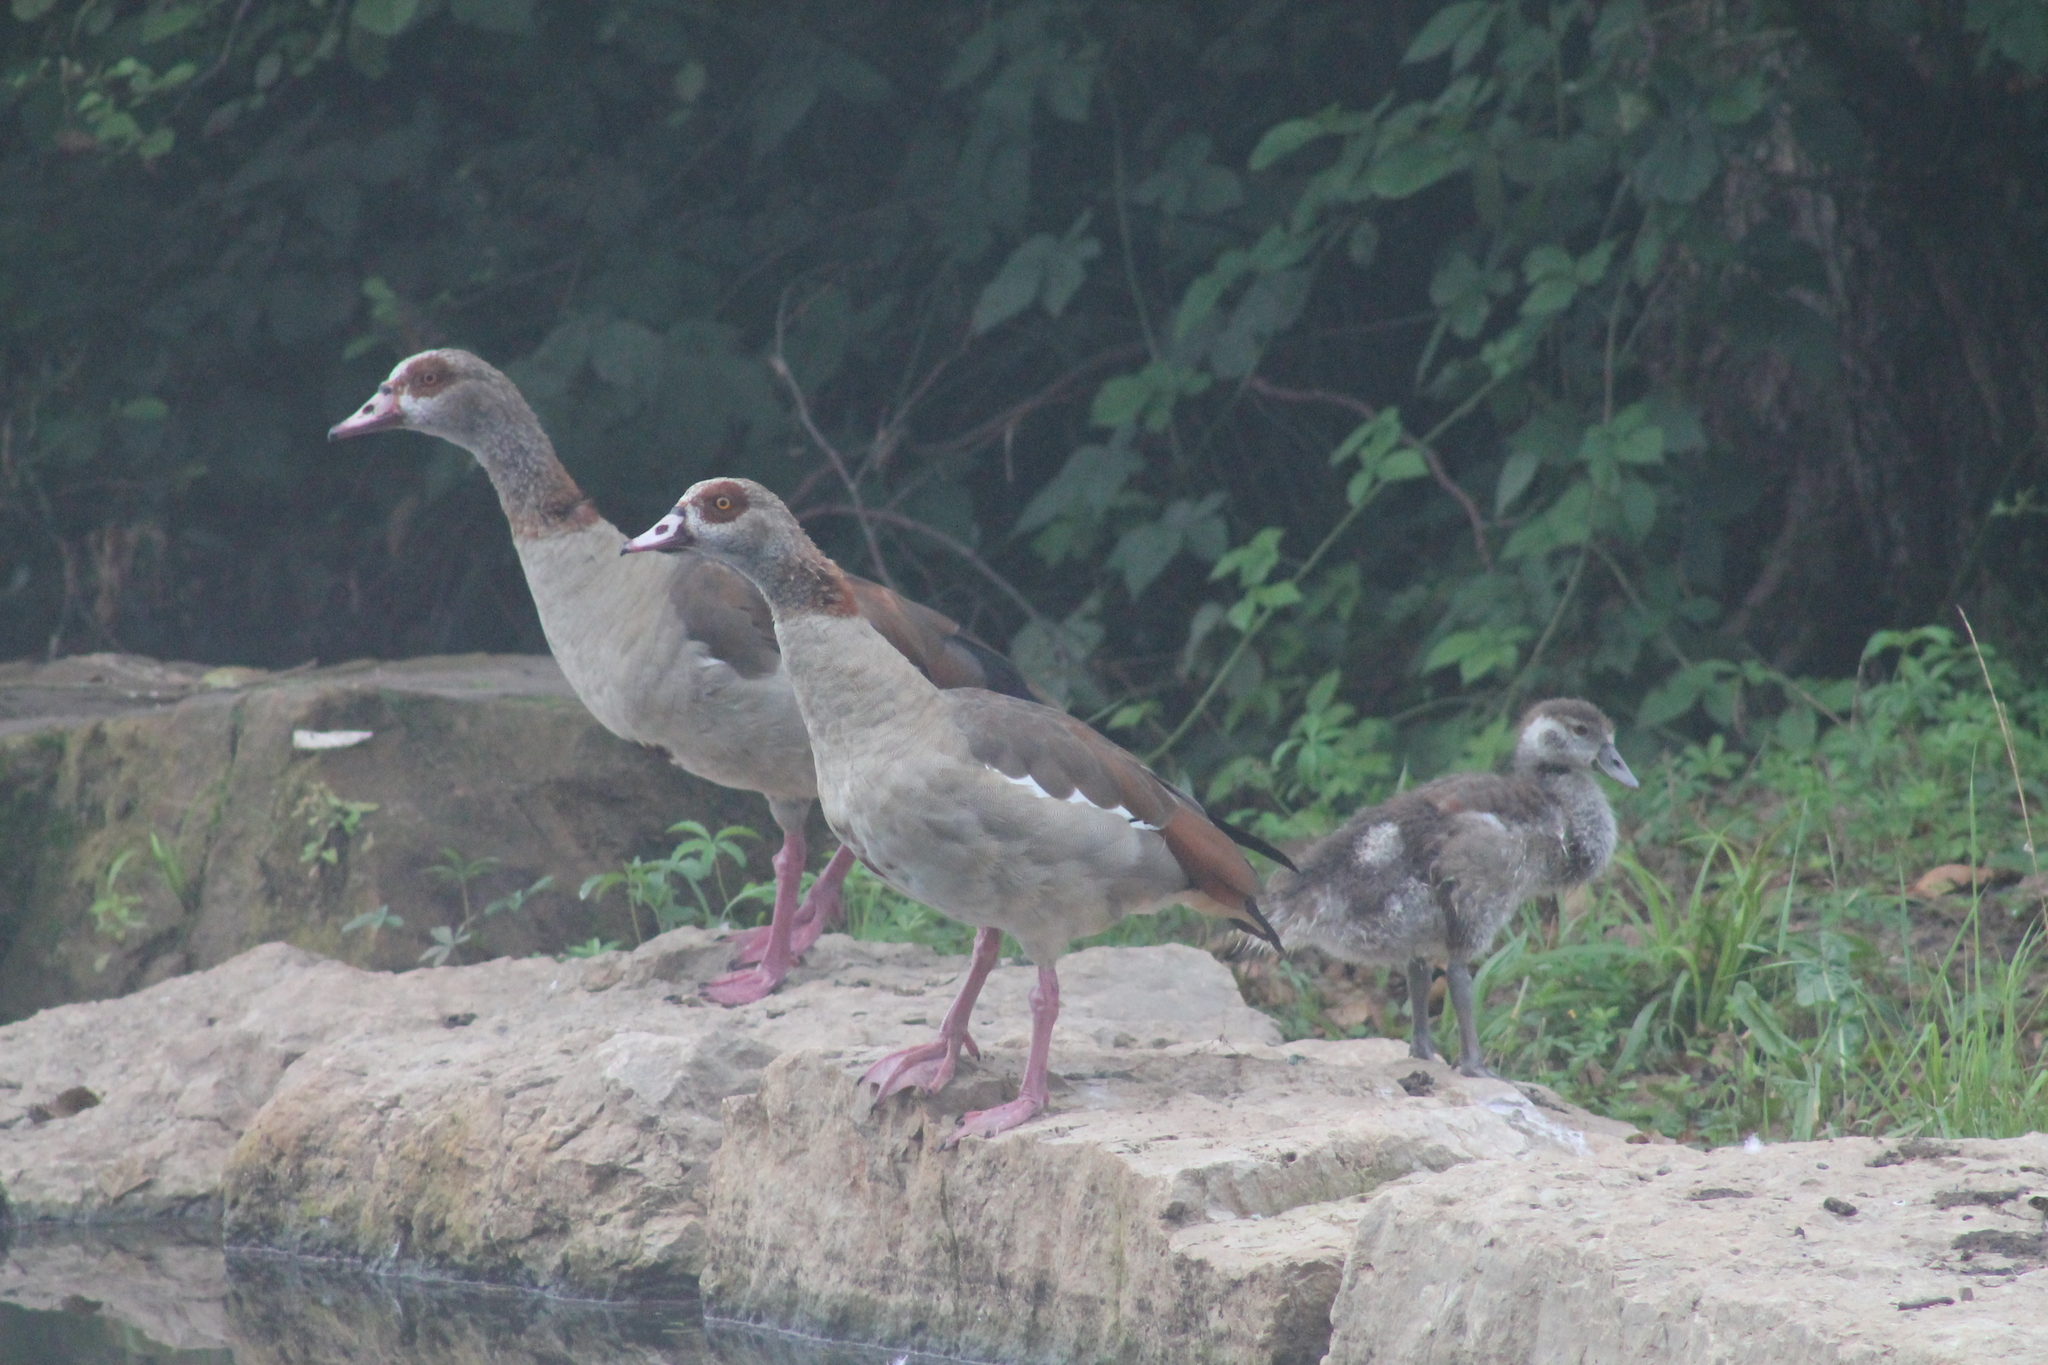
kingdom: Animalia
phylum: Chordata
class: Aves
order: Anseriformes
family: Anatidae
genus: Alopochen
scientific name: Alopochen aegyptiaca
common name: Egyptian goose
